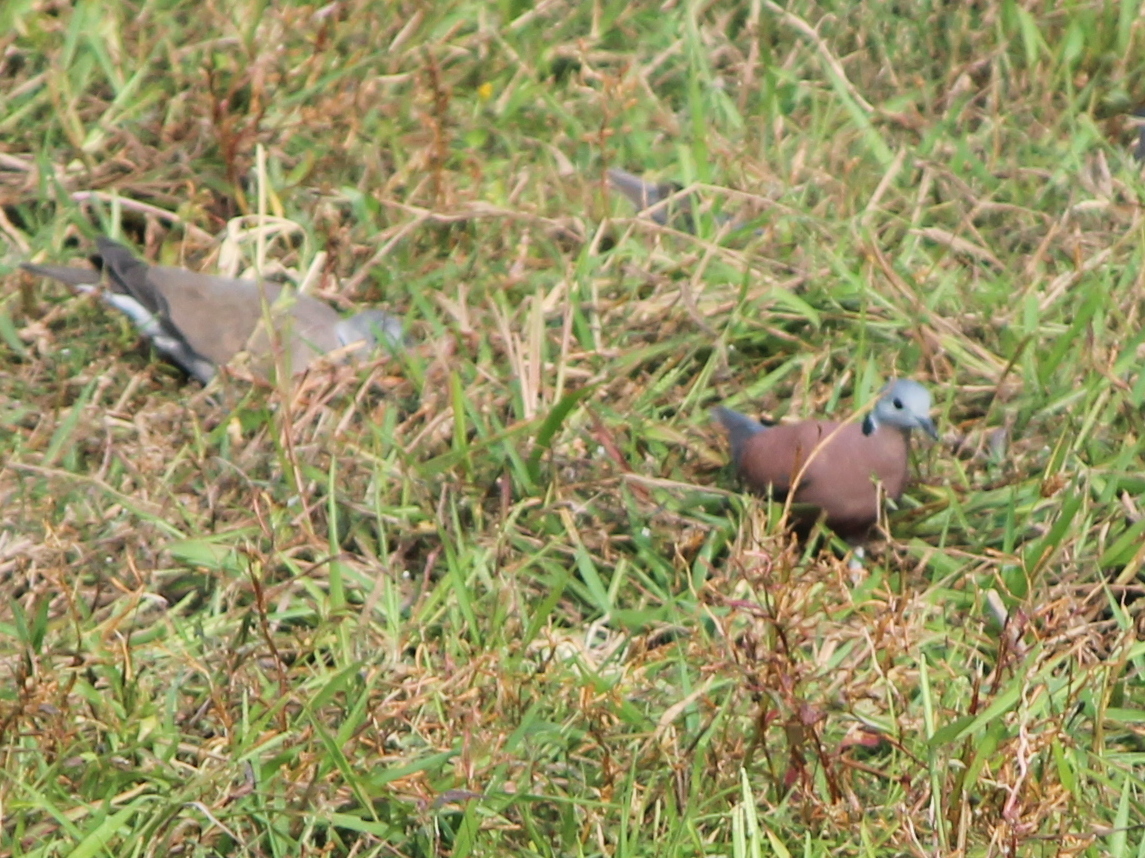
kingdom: Animalia
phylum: Chordata
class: Aves
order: Columbiformes
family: Columbidae
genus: Streptopelia
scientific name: Streptopelia tranquebarica
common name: Red turtle dove
